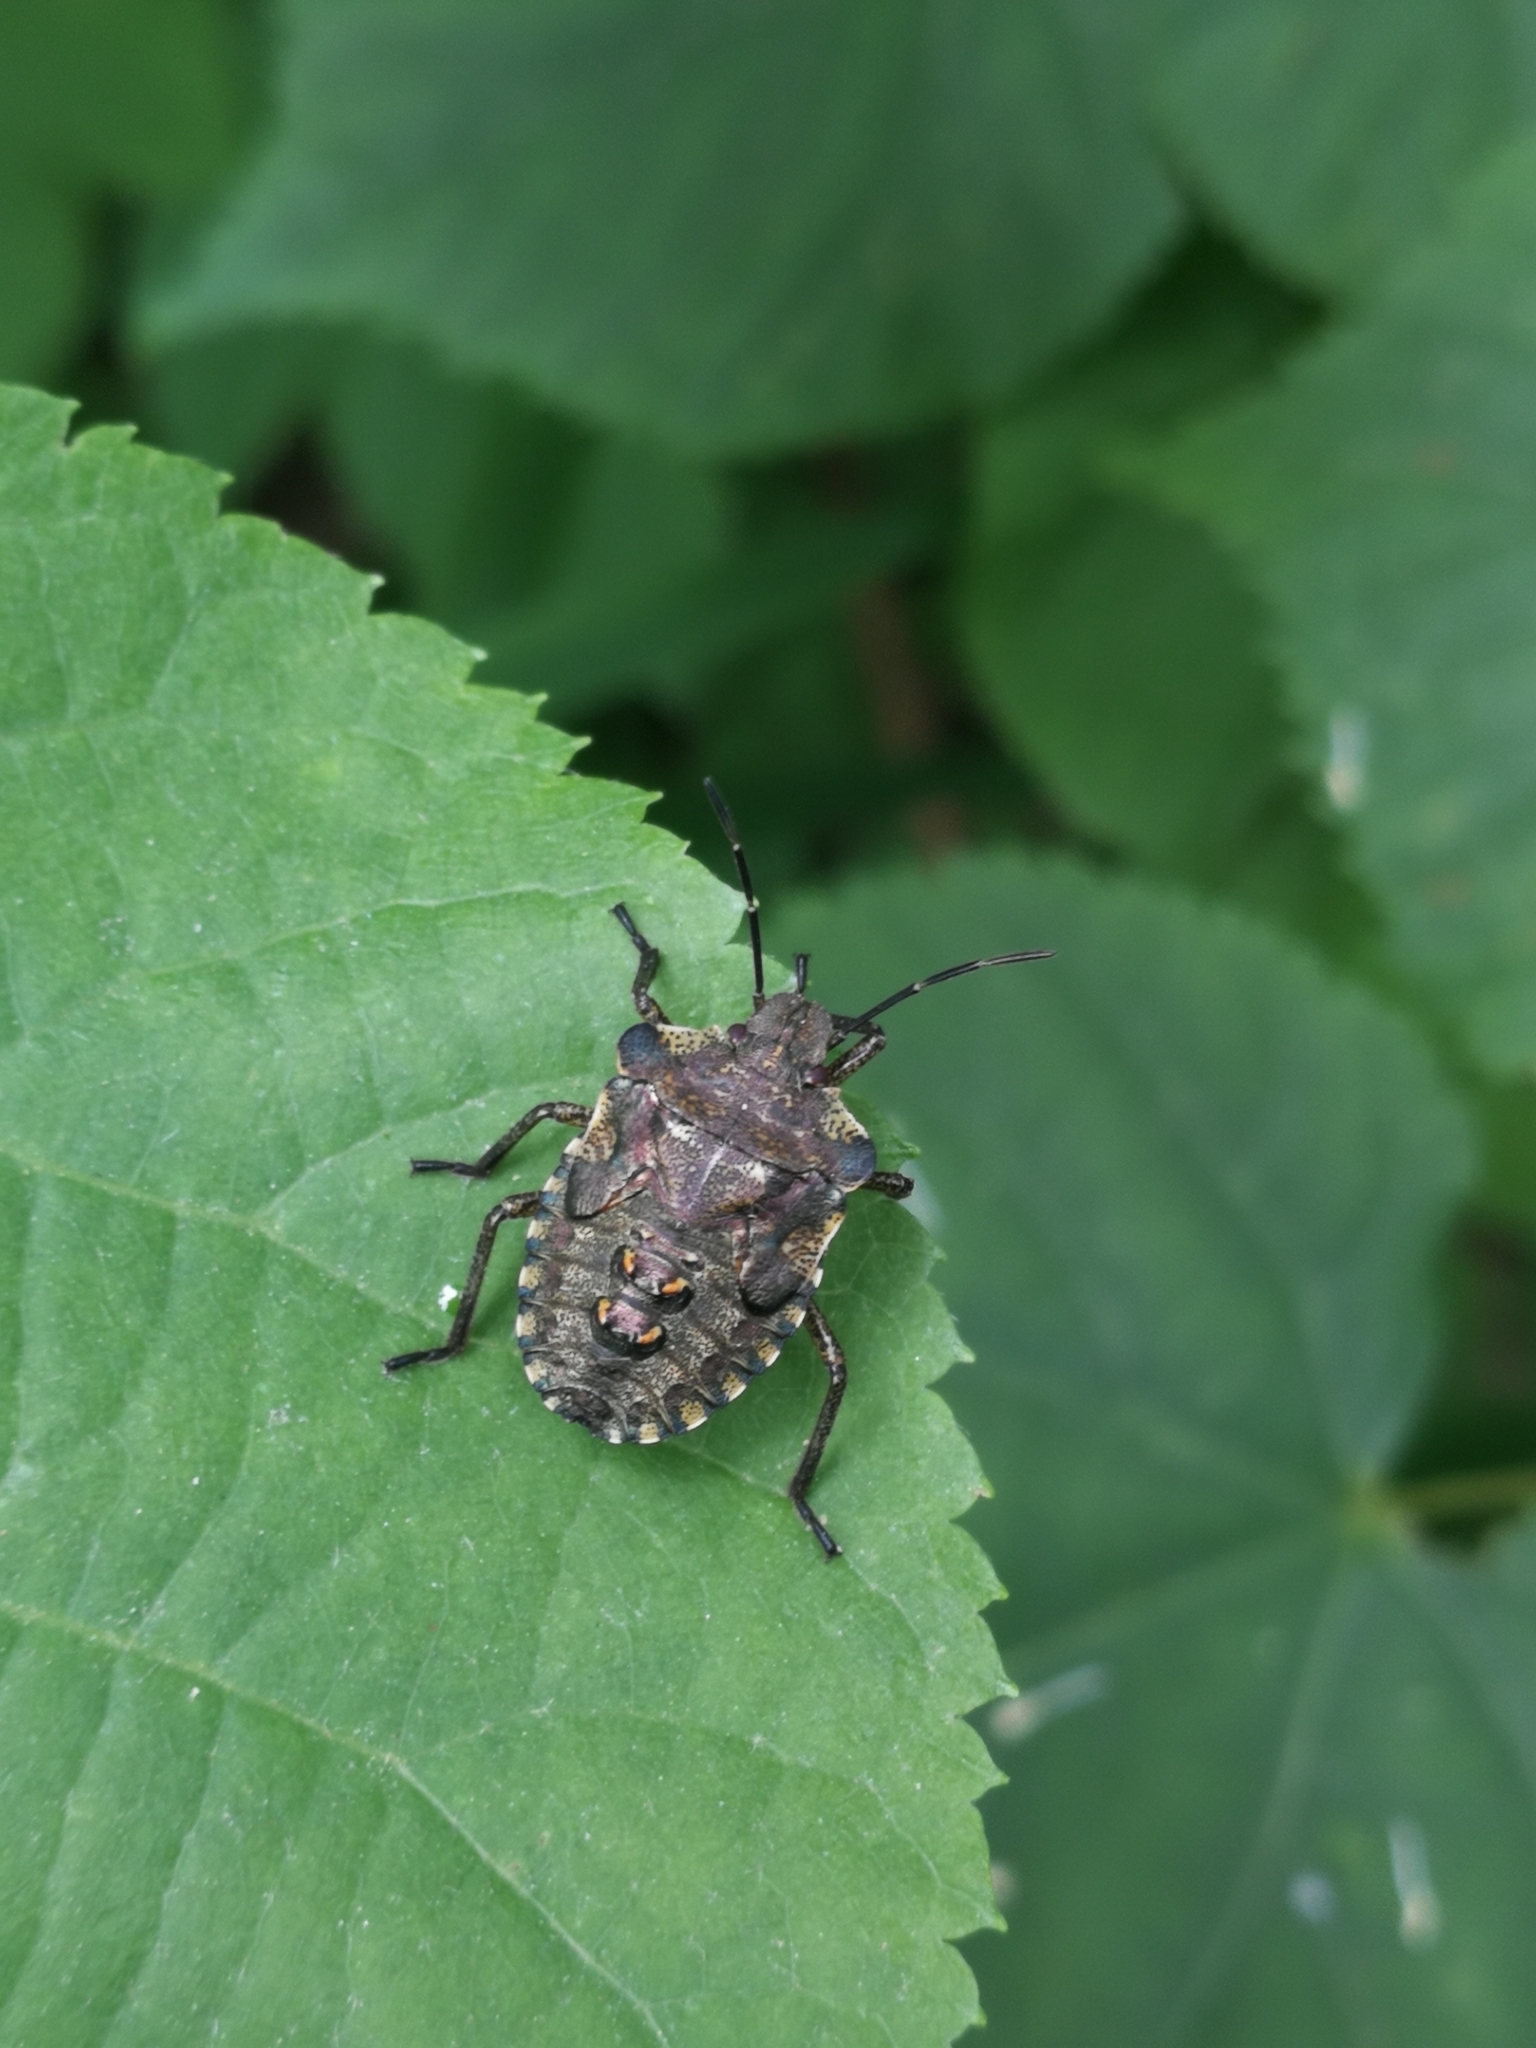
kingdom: Animalia
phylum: Arthropoda
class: Insecta
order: Hemiptera
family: Pentatomidae
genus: Pentatoma
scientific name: Pentatoma rufipes
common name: Forest bug
